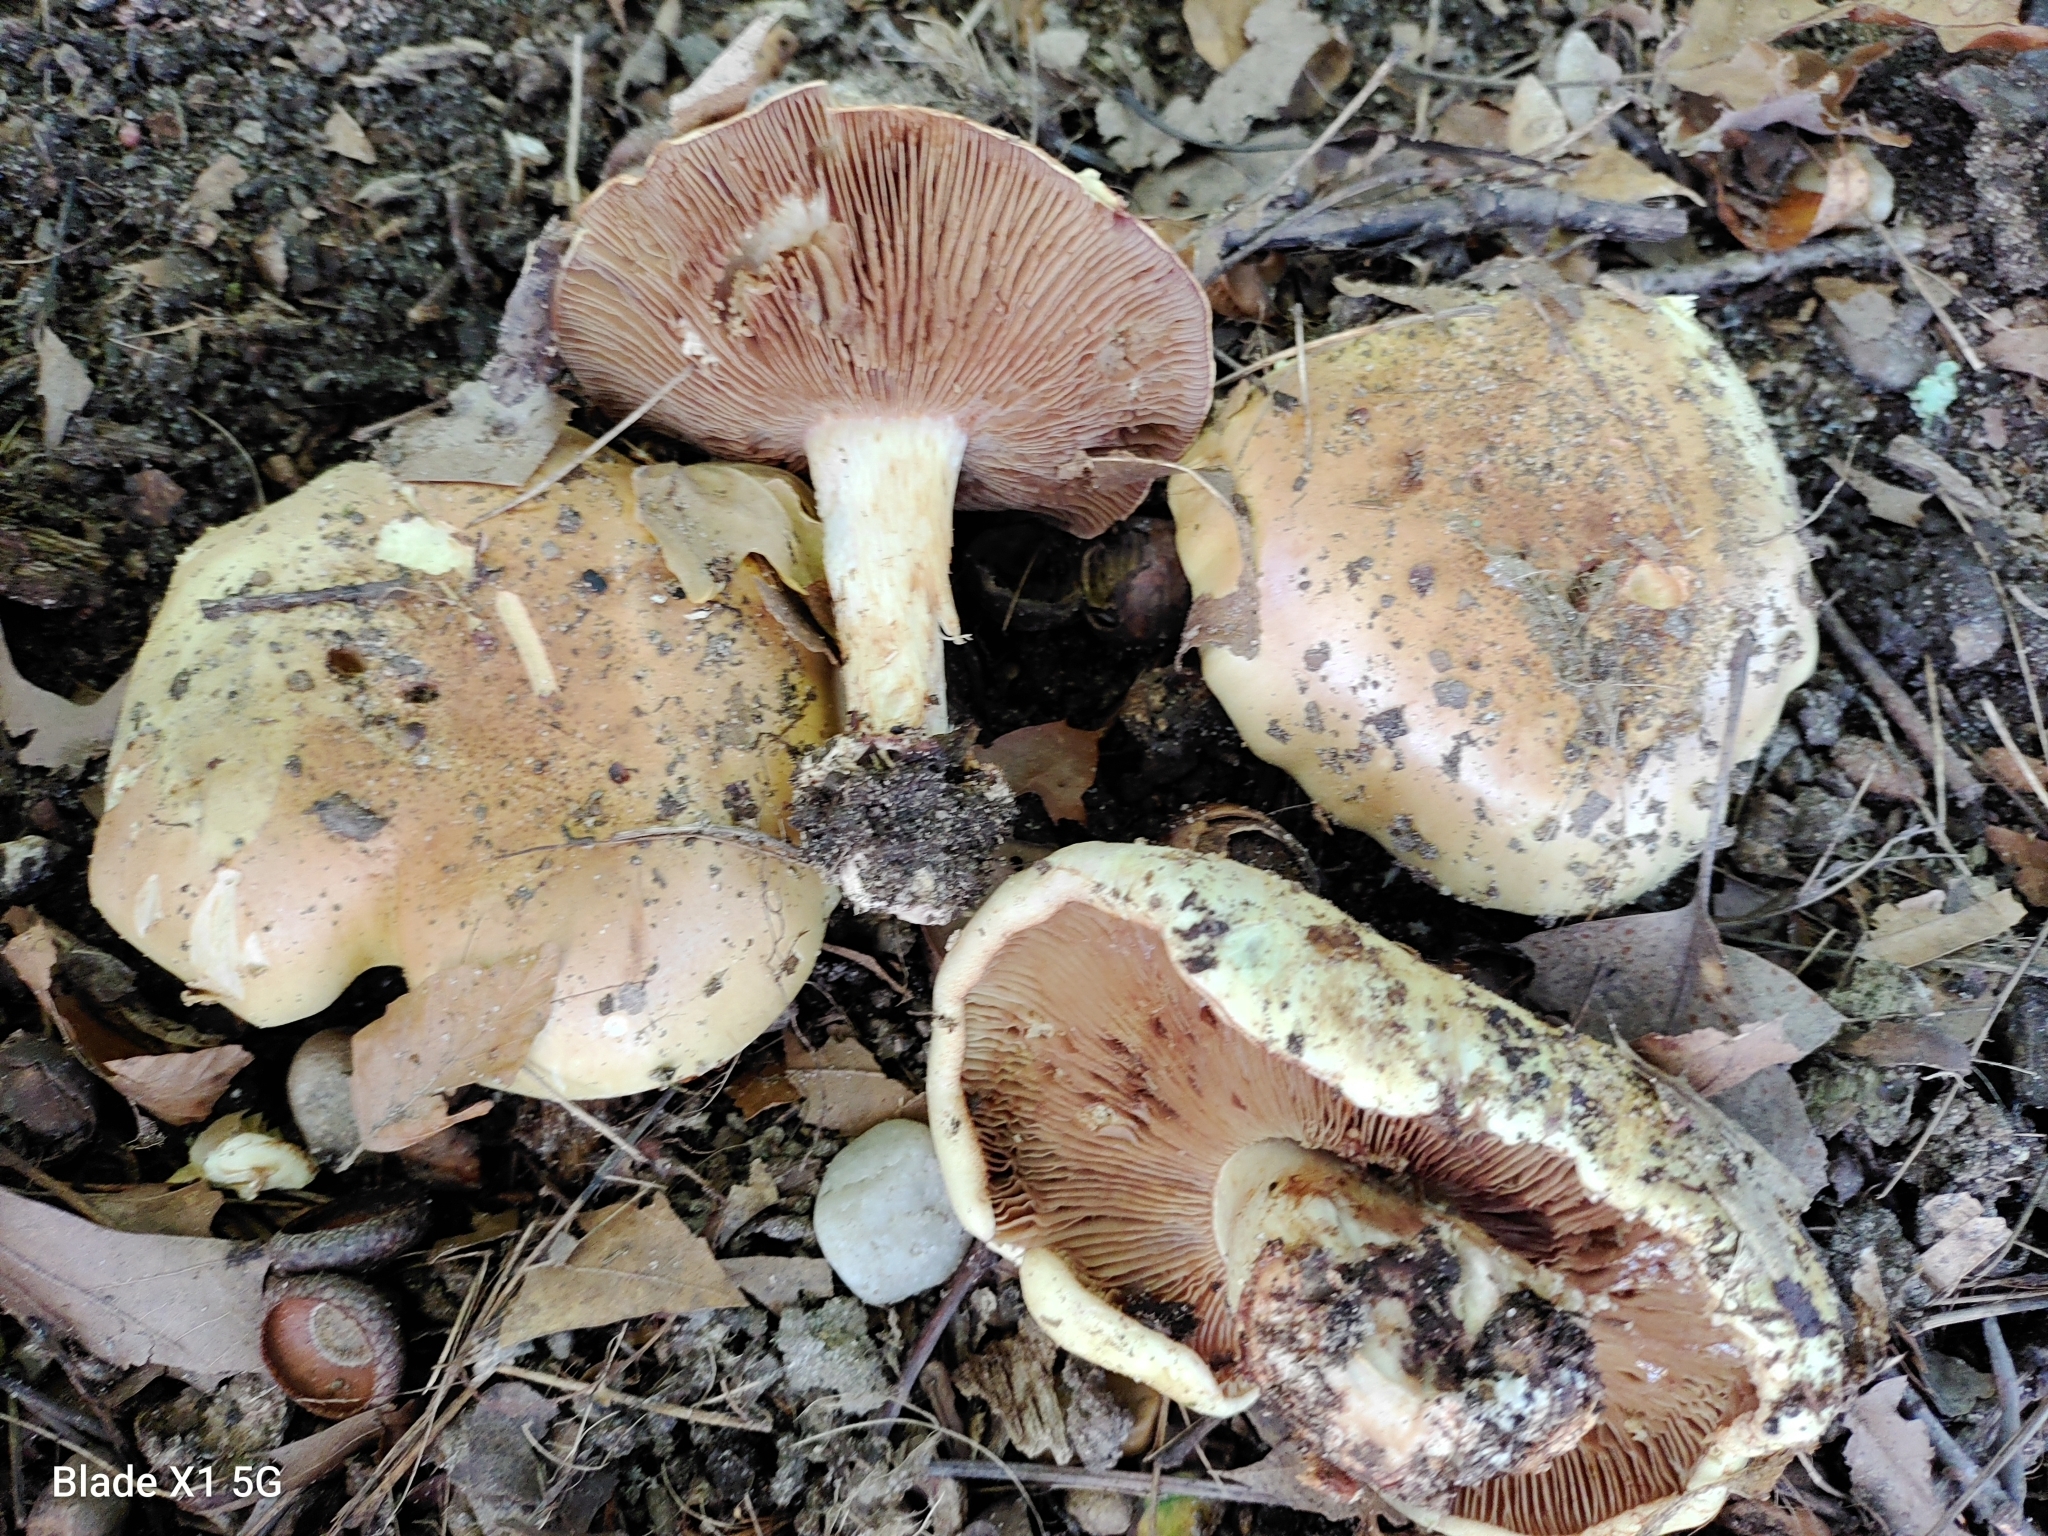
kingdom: Fungi
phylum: Basidiomycota
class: Agaricomycetes
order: Agaricales
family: Cortinariaceae
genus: Cortinarius
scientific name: Cortinarius atkinsonianus
